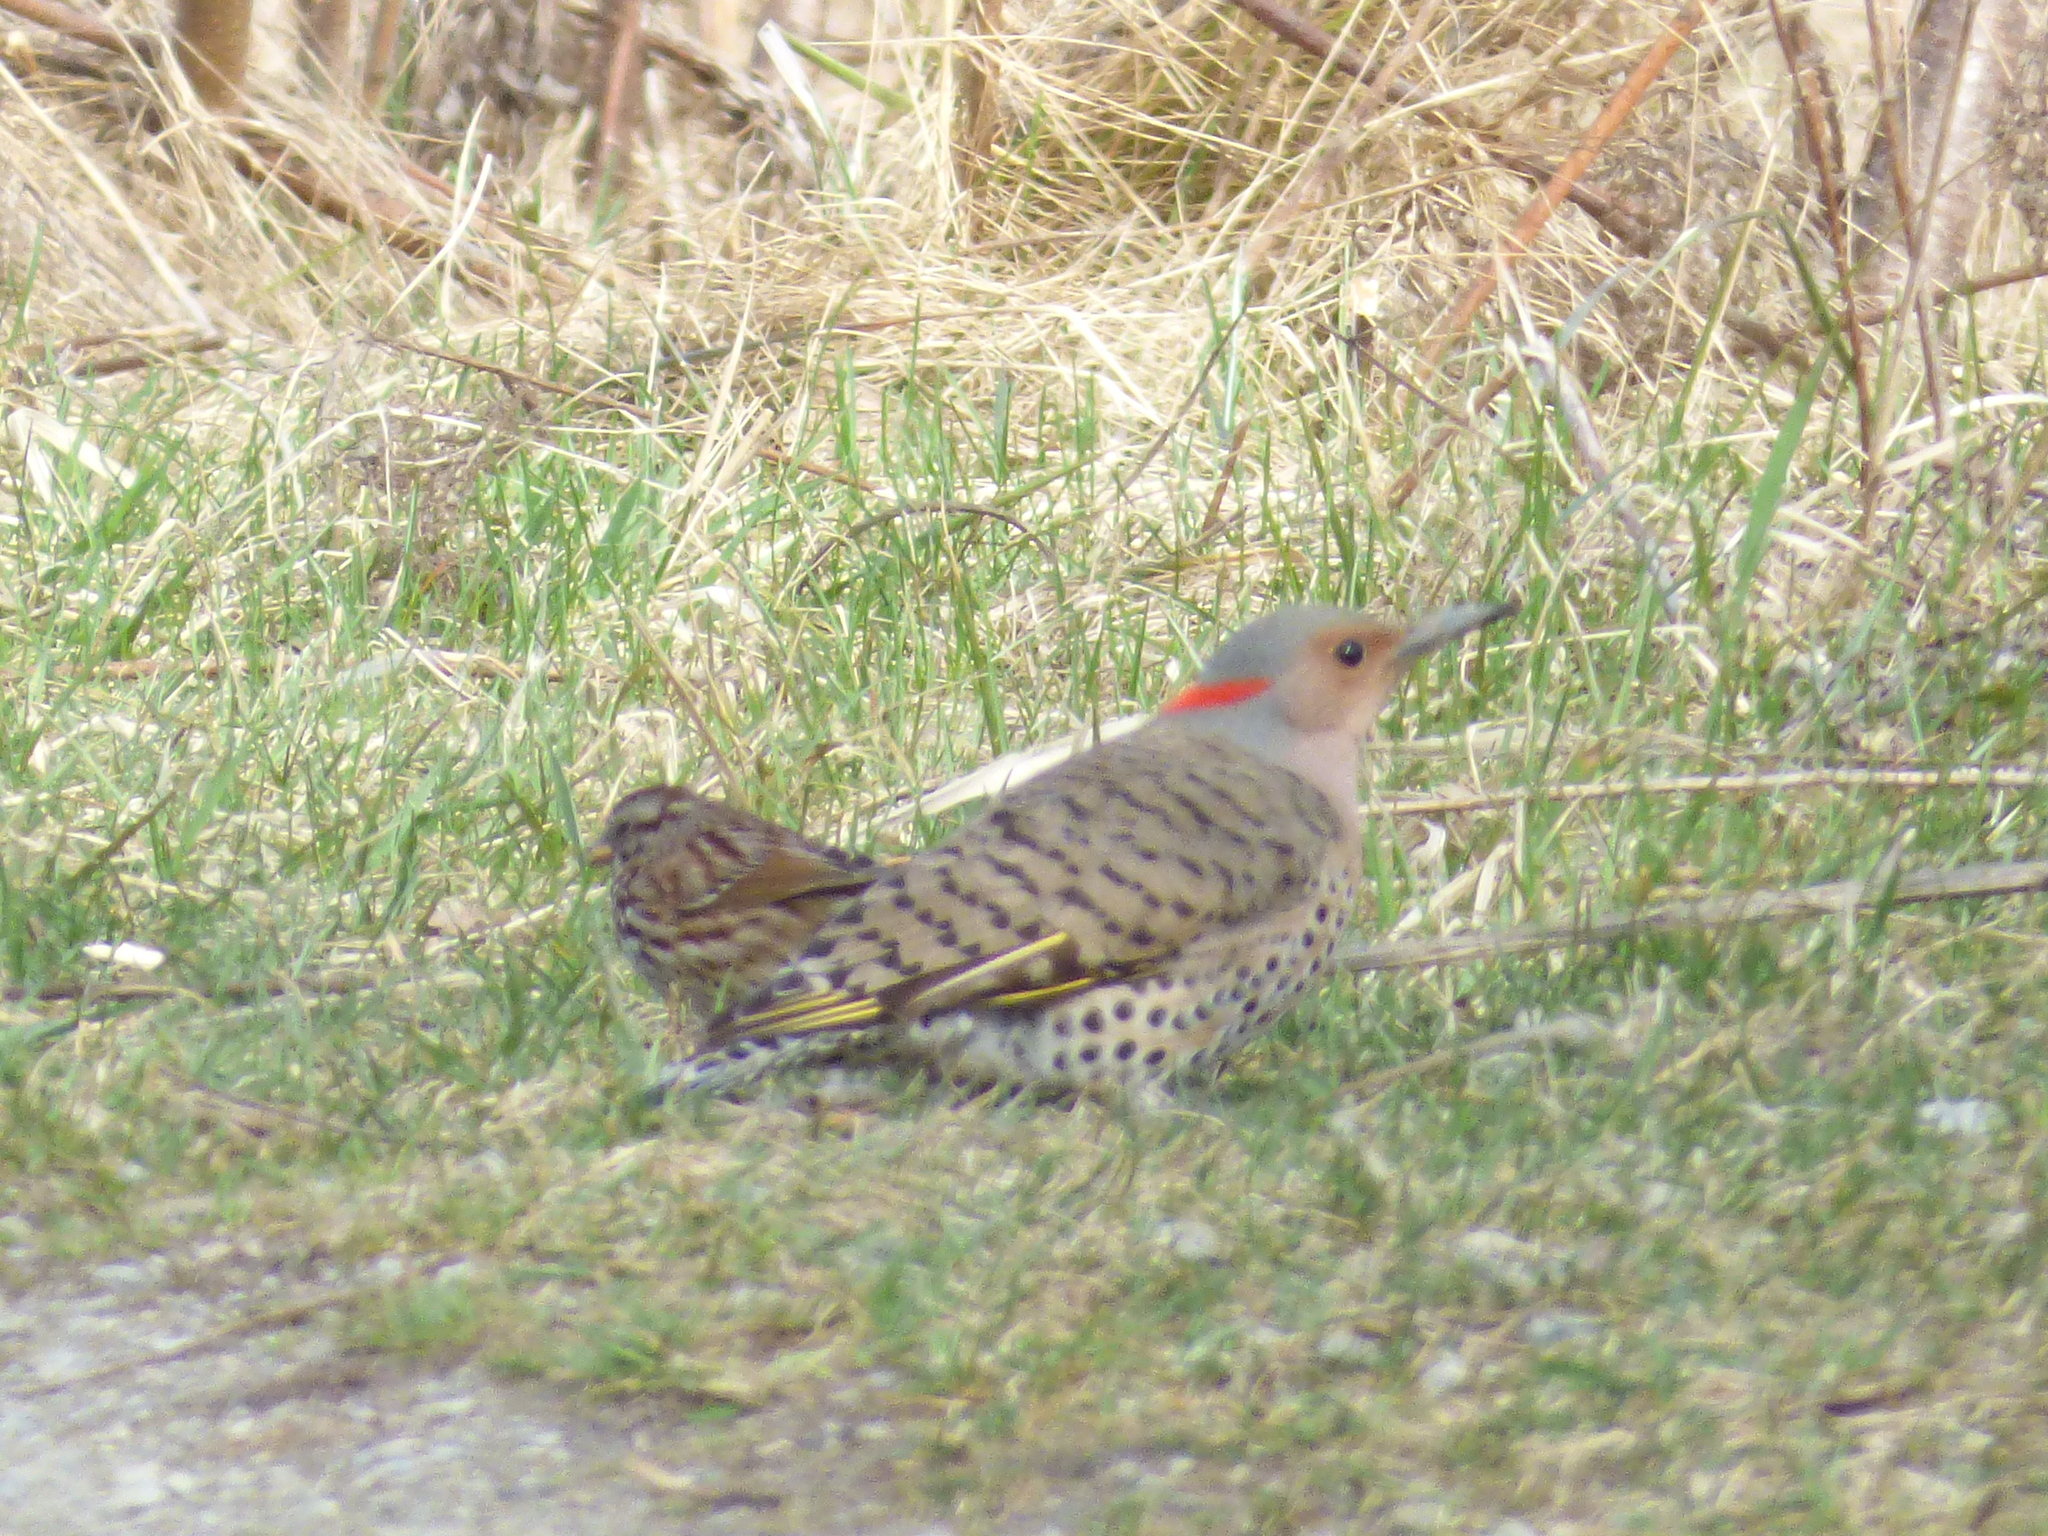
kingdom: Animalia
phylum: Chordata
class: Aves
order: Piciformes
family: Picidae
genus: Colaptes
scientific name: Colaptes auratus
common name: Northern flicker
